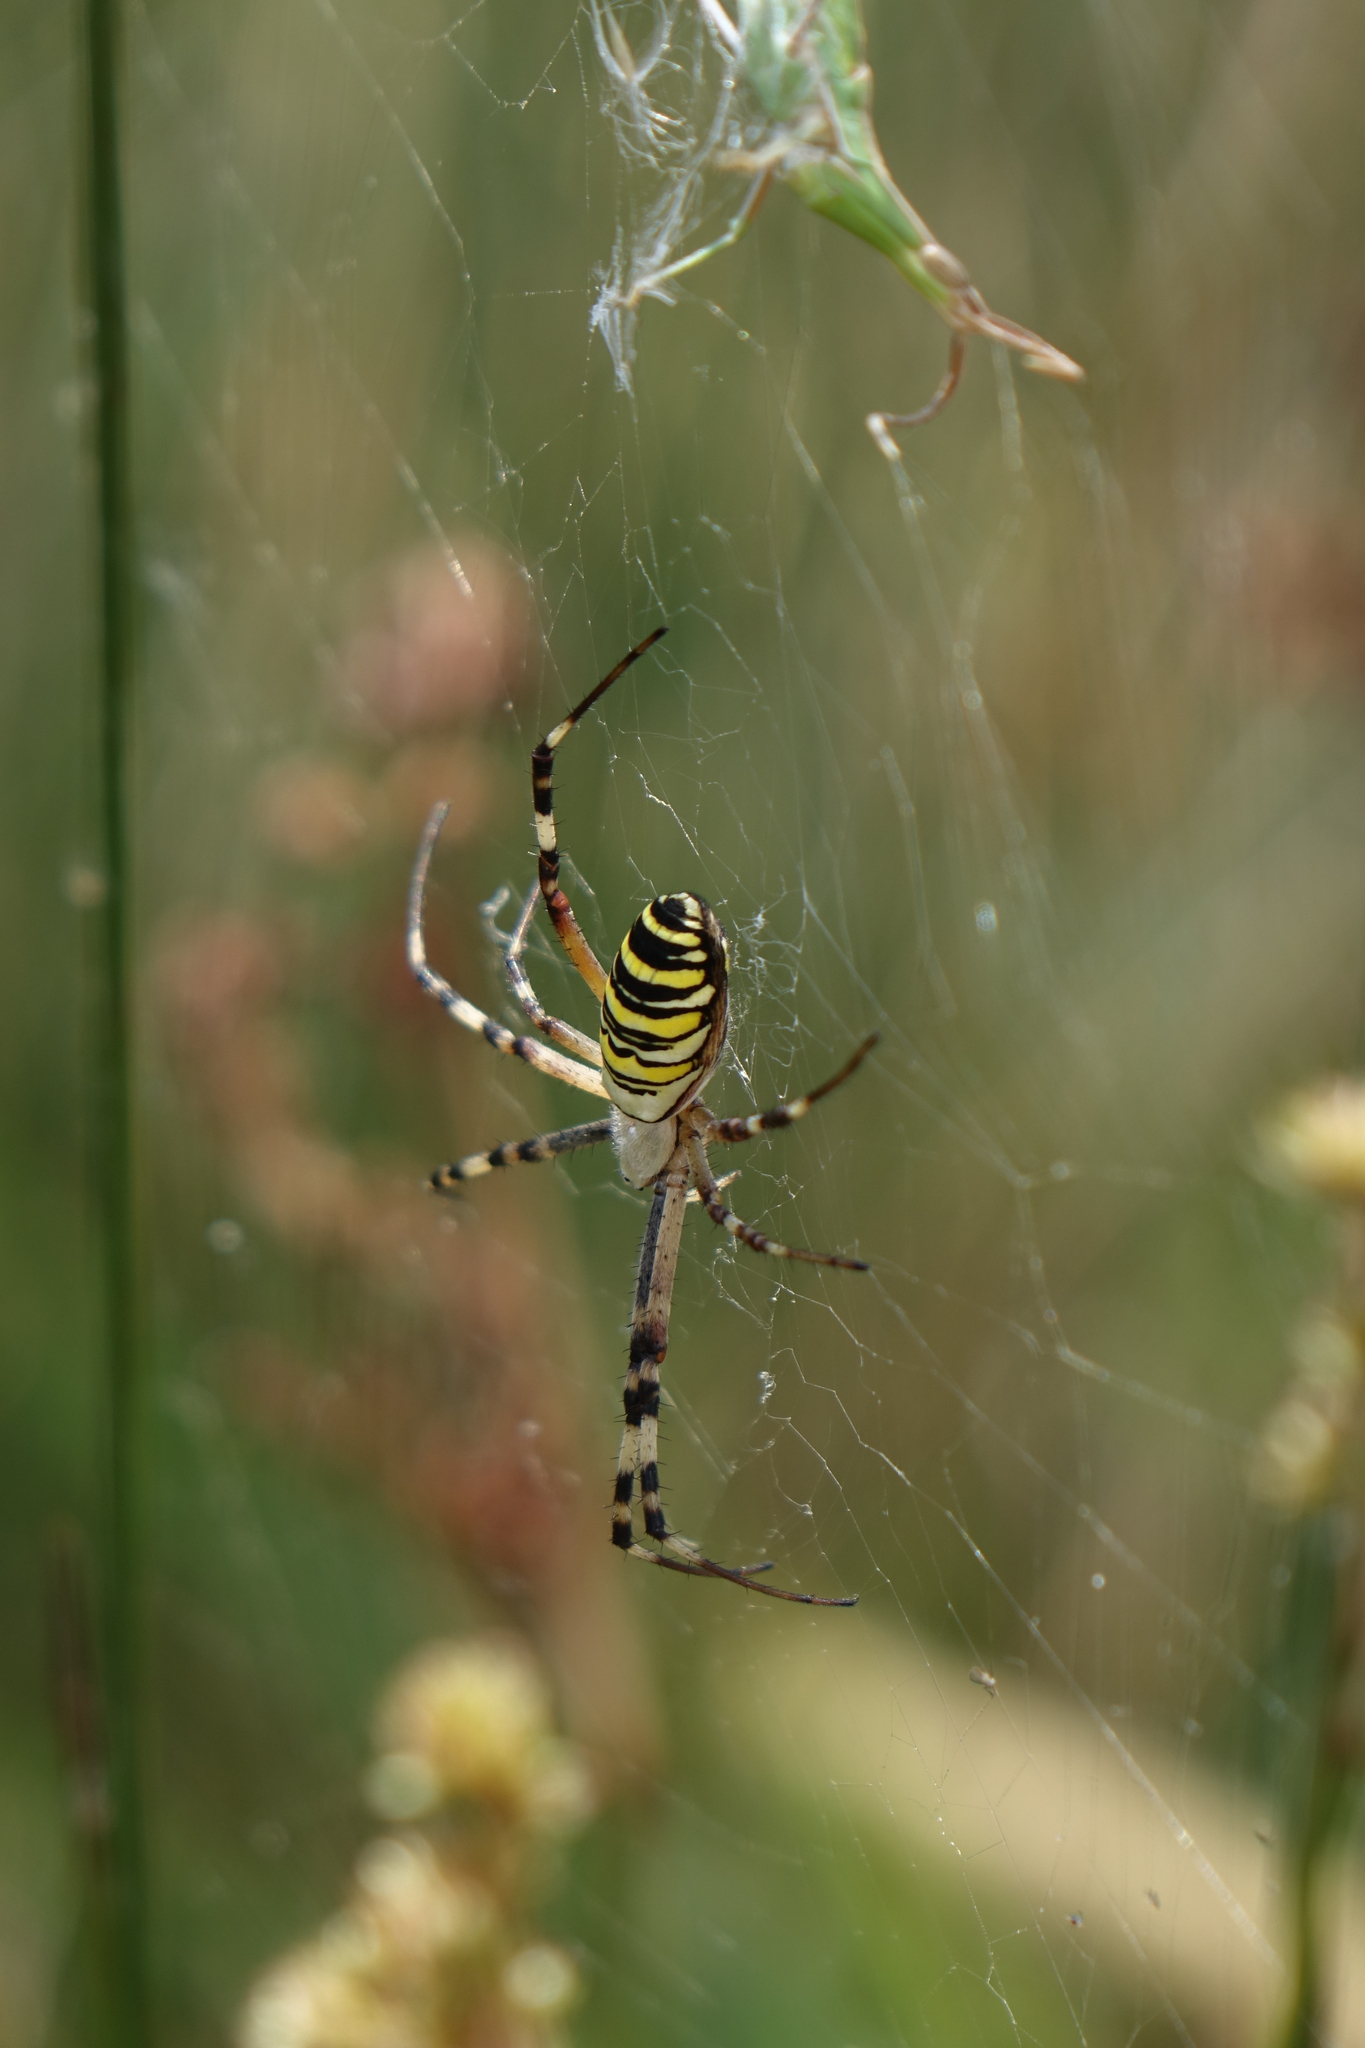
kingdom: Animalia
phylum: Arthropoda
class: Arachnida
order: Araneae
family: Araneidae
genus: Argiope
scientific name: Argiope bruennichi
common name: Wasp spider
